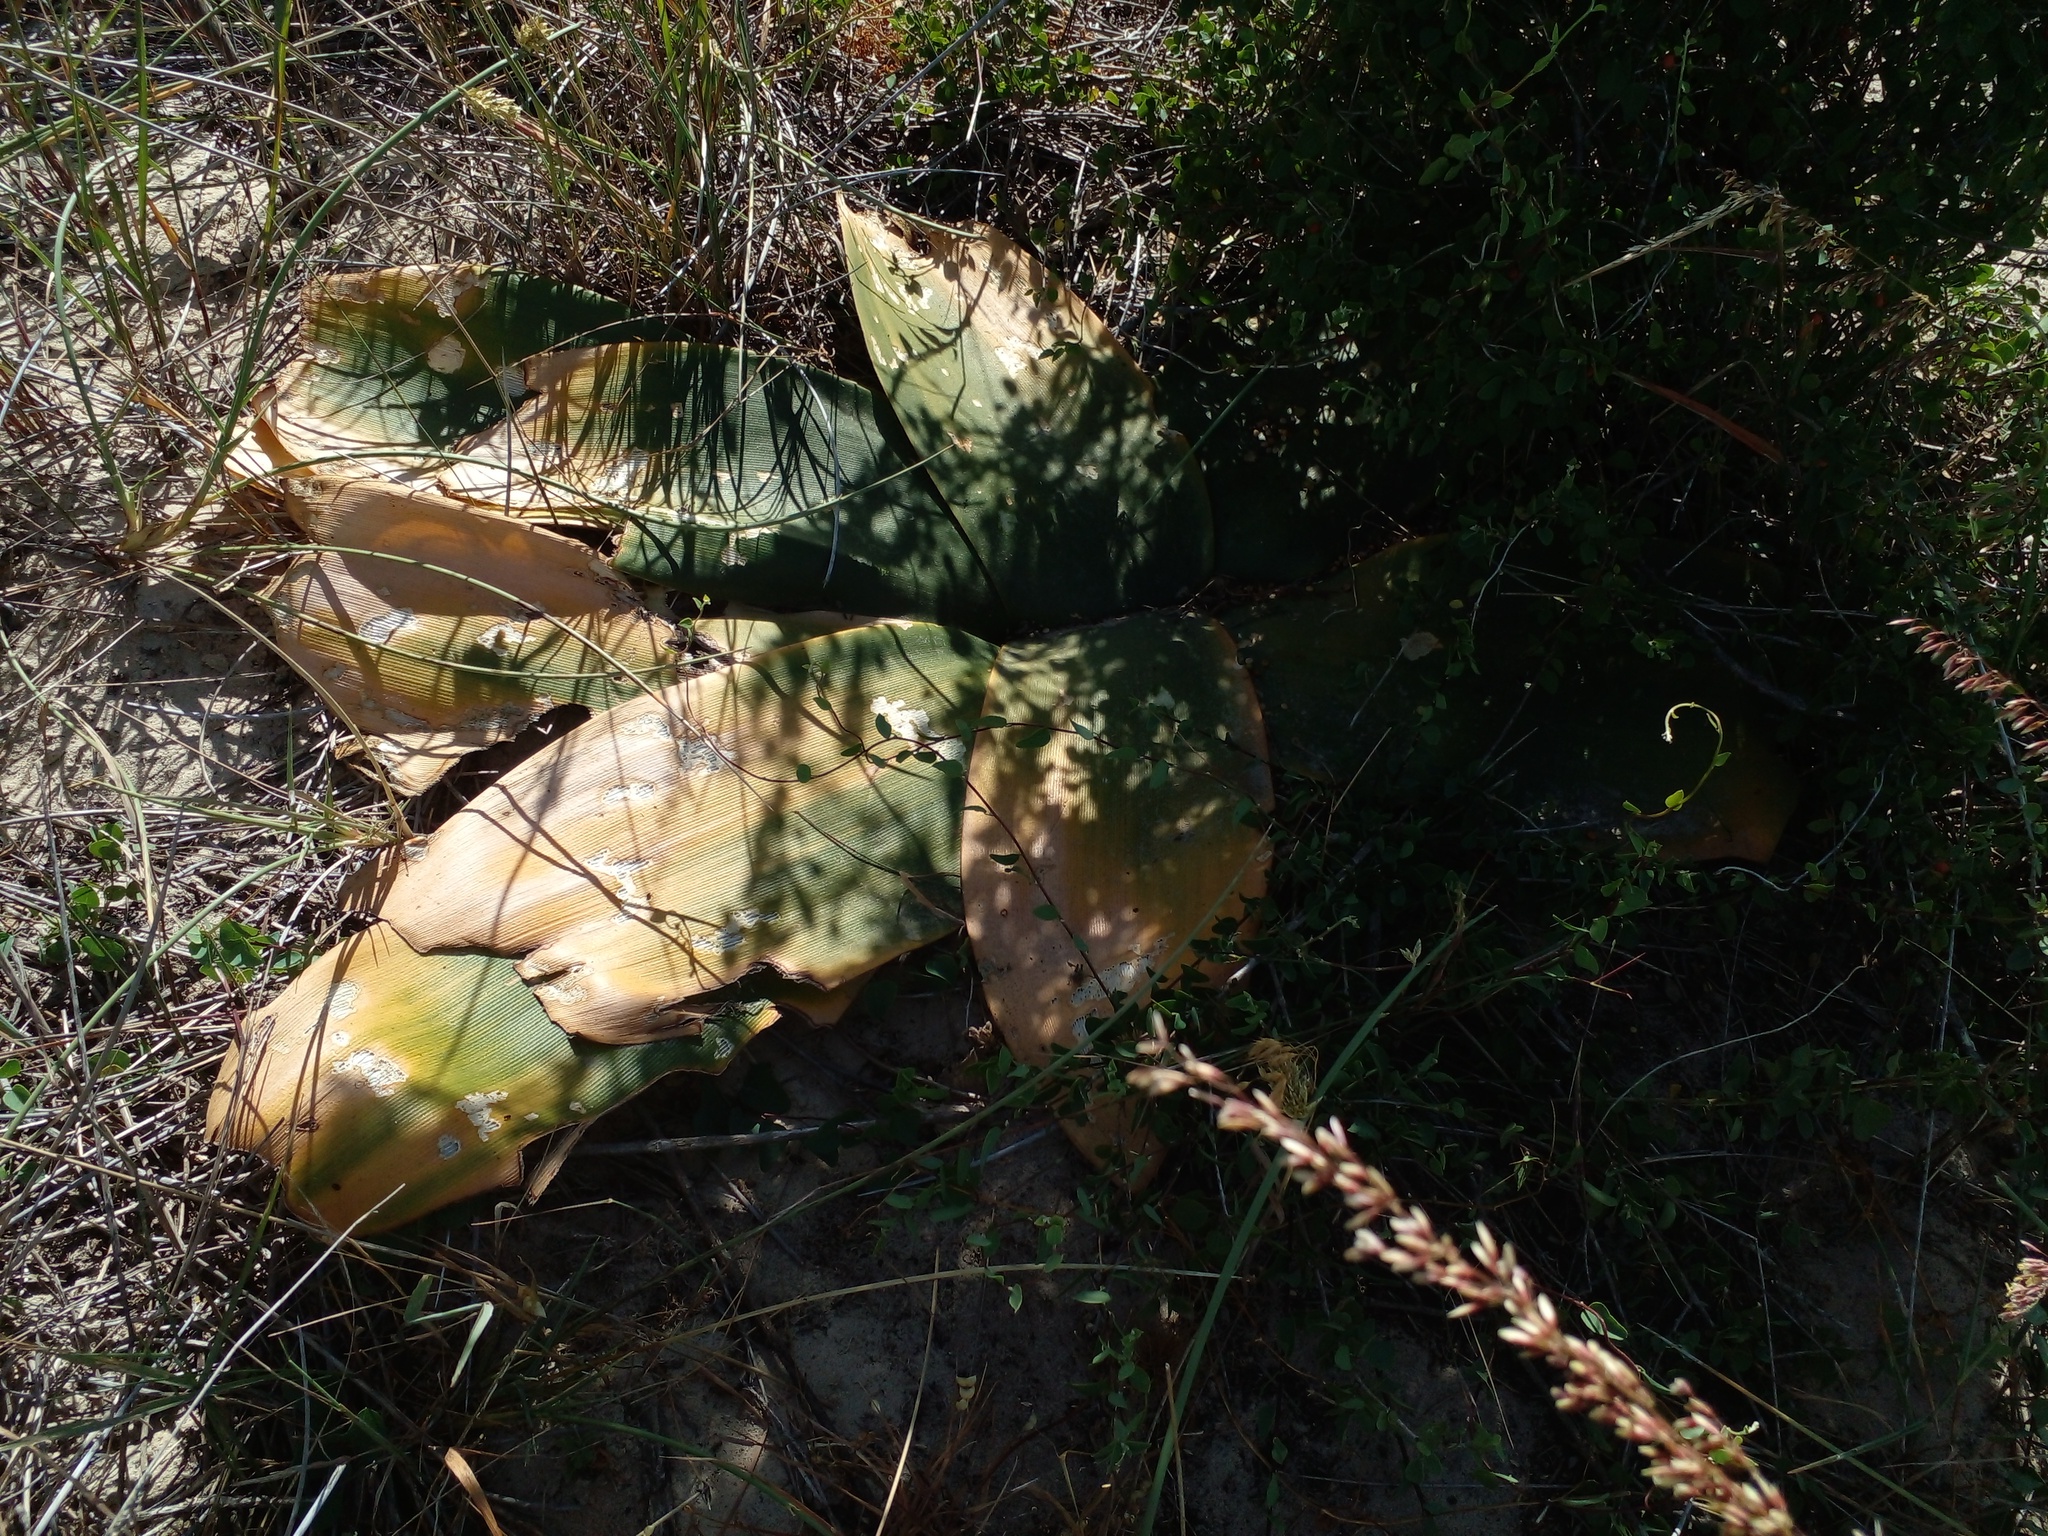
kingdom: Plantae
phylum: Tracheophyta
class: Liliopsida
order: Asparagales
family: Amaryllidaceae
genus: Brunsvigia
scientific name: Brunsvigia orientalis
